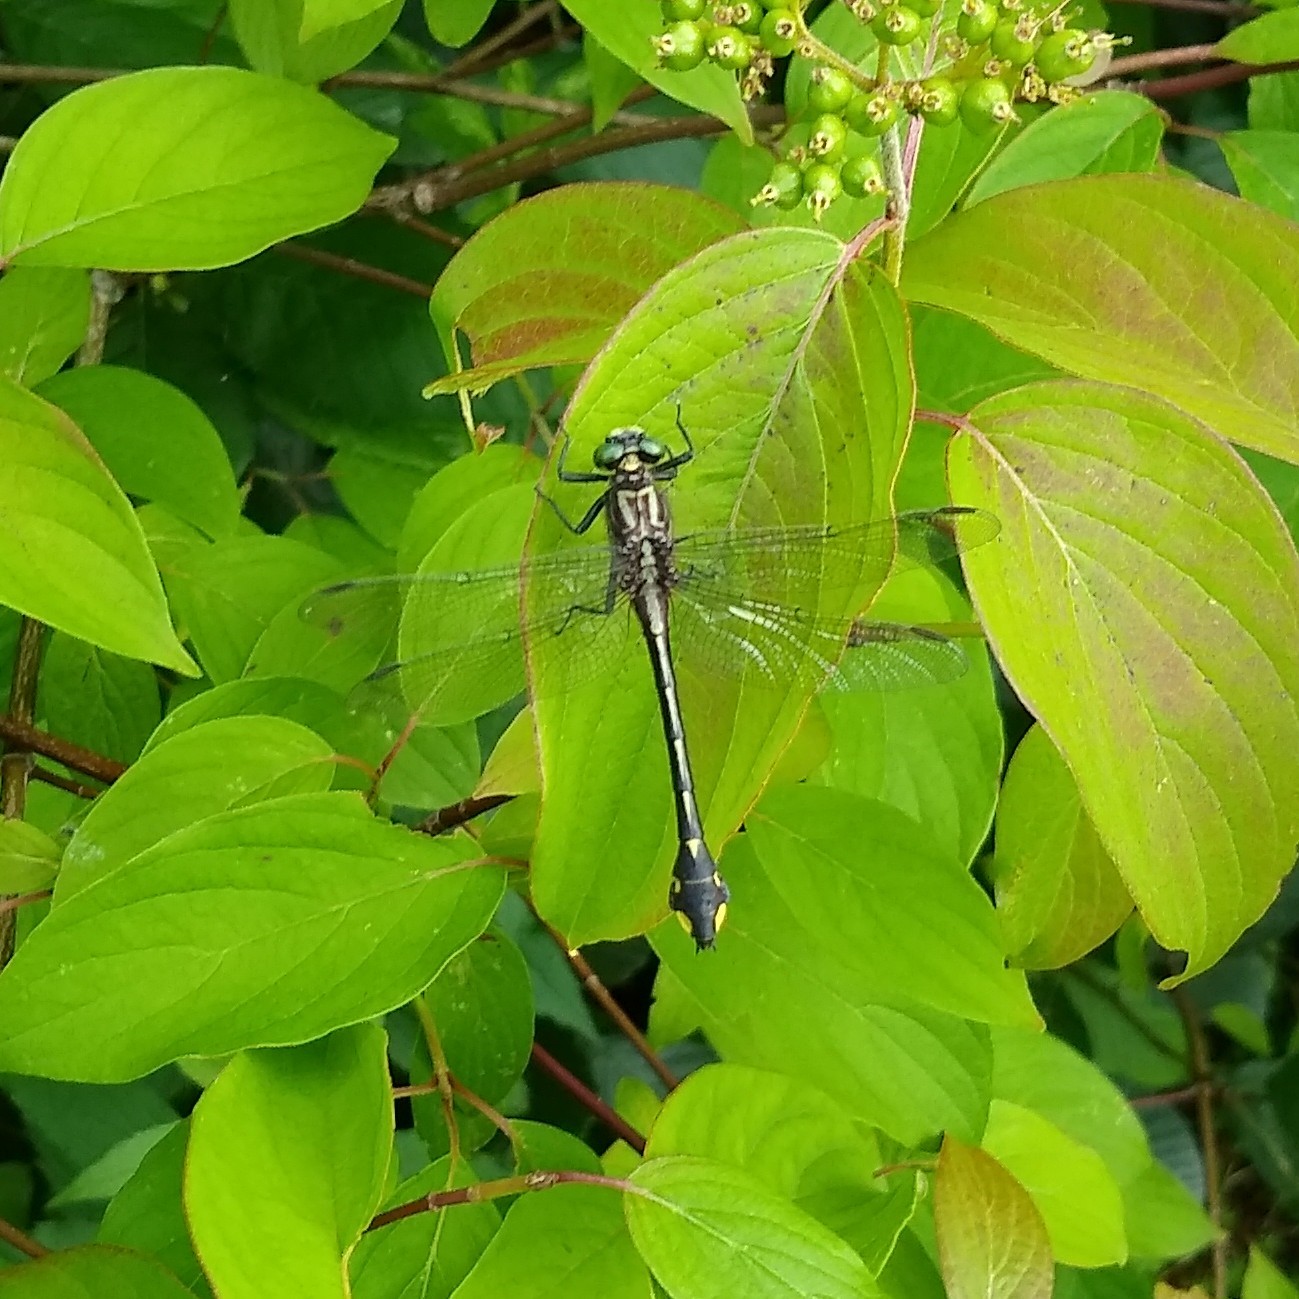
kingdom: Animalia
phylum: Arthropoda
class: Insecta
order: Odonata
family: Gomphidae
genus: Gomphurus
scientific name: Gomphurus vastus
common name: Cobra clubtail
